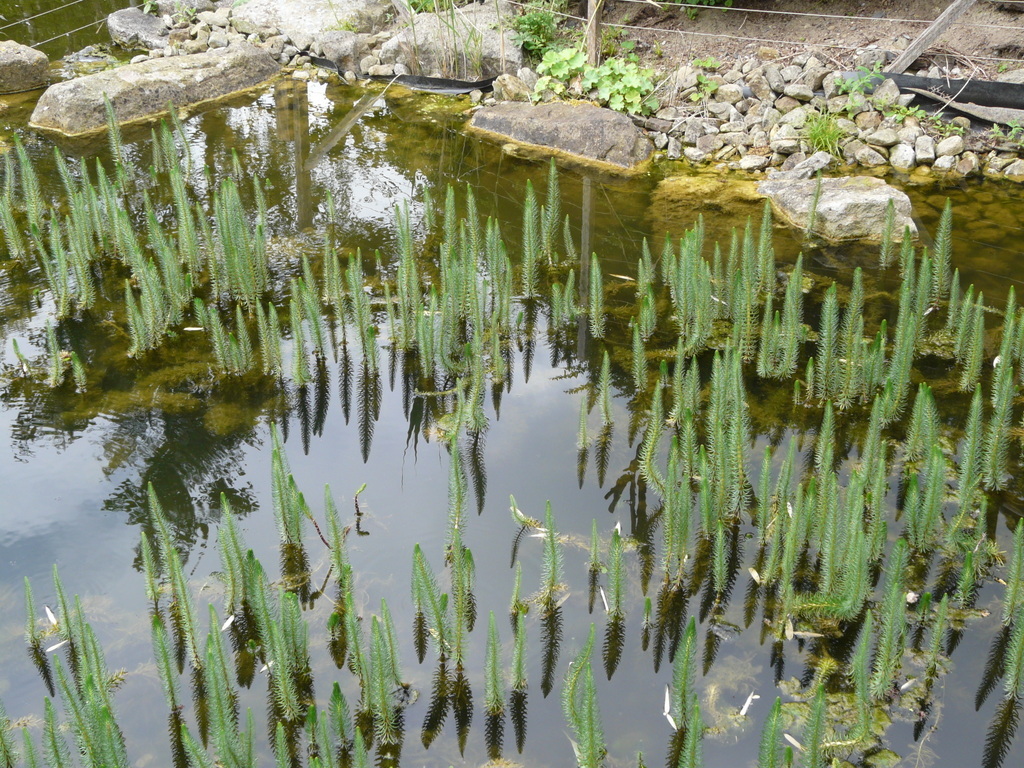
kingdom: Plantae
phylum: Tracheophyta
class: Magnoliopsida
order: Lamiales
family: Plantaginaceae
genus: Hippuris
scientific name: Hippuris vulgaris
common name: Mare's-tail
